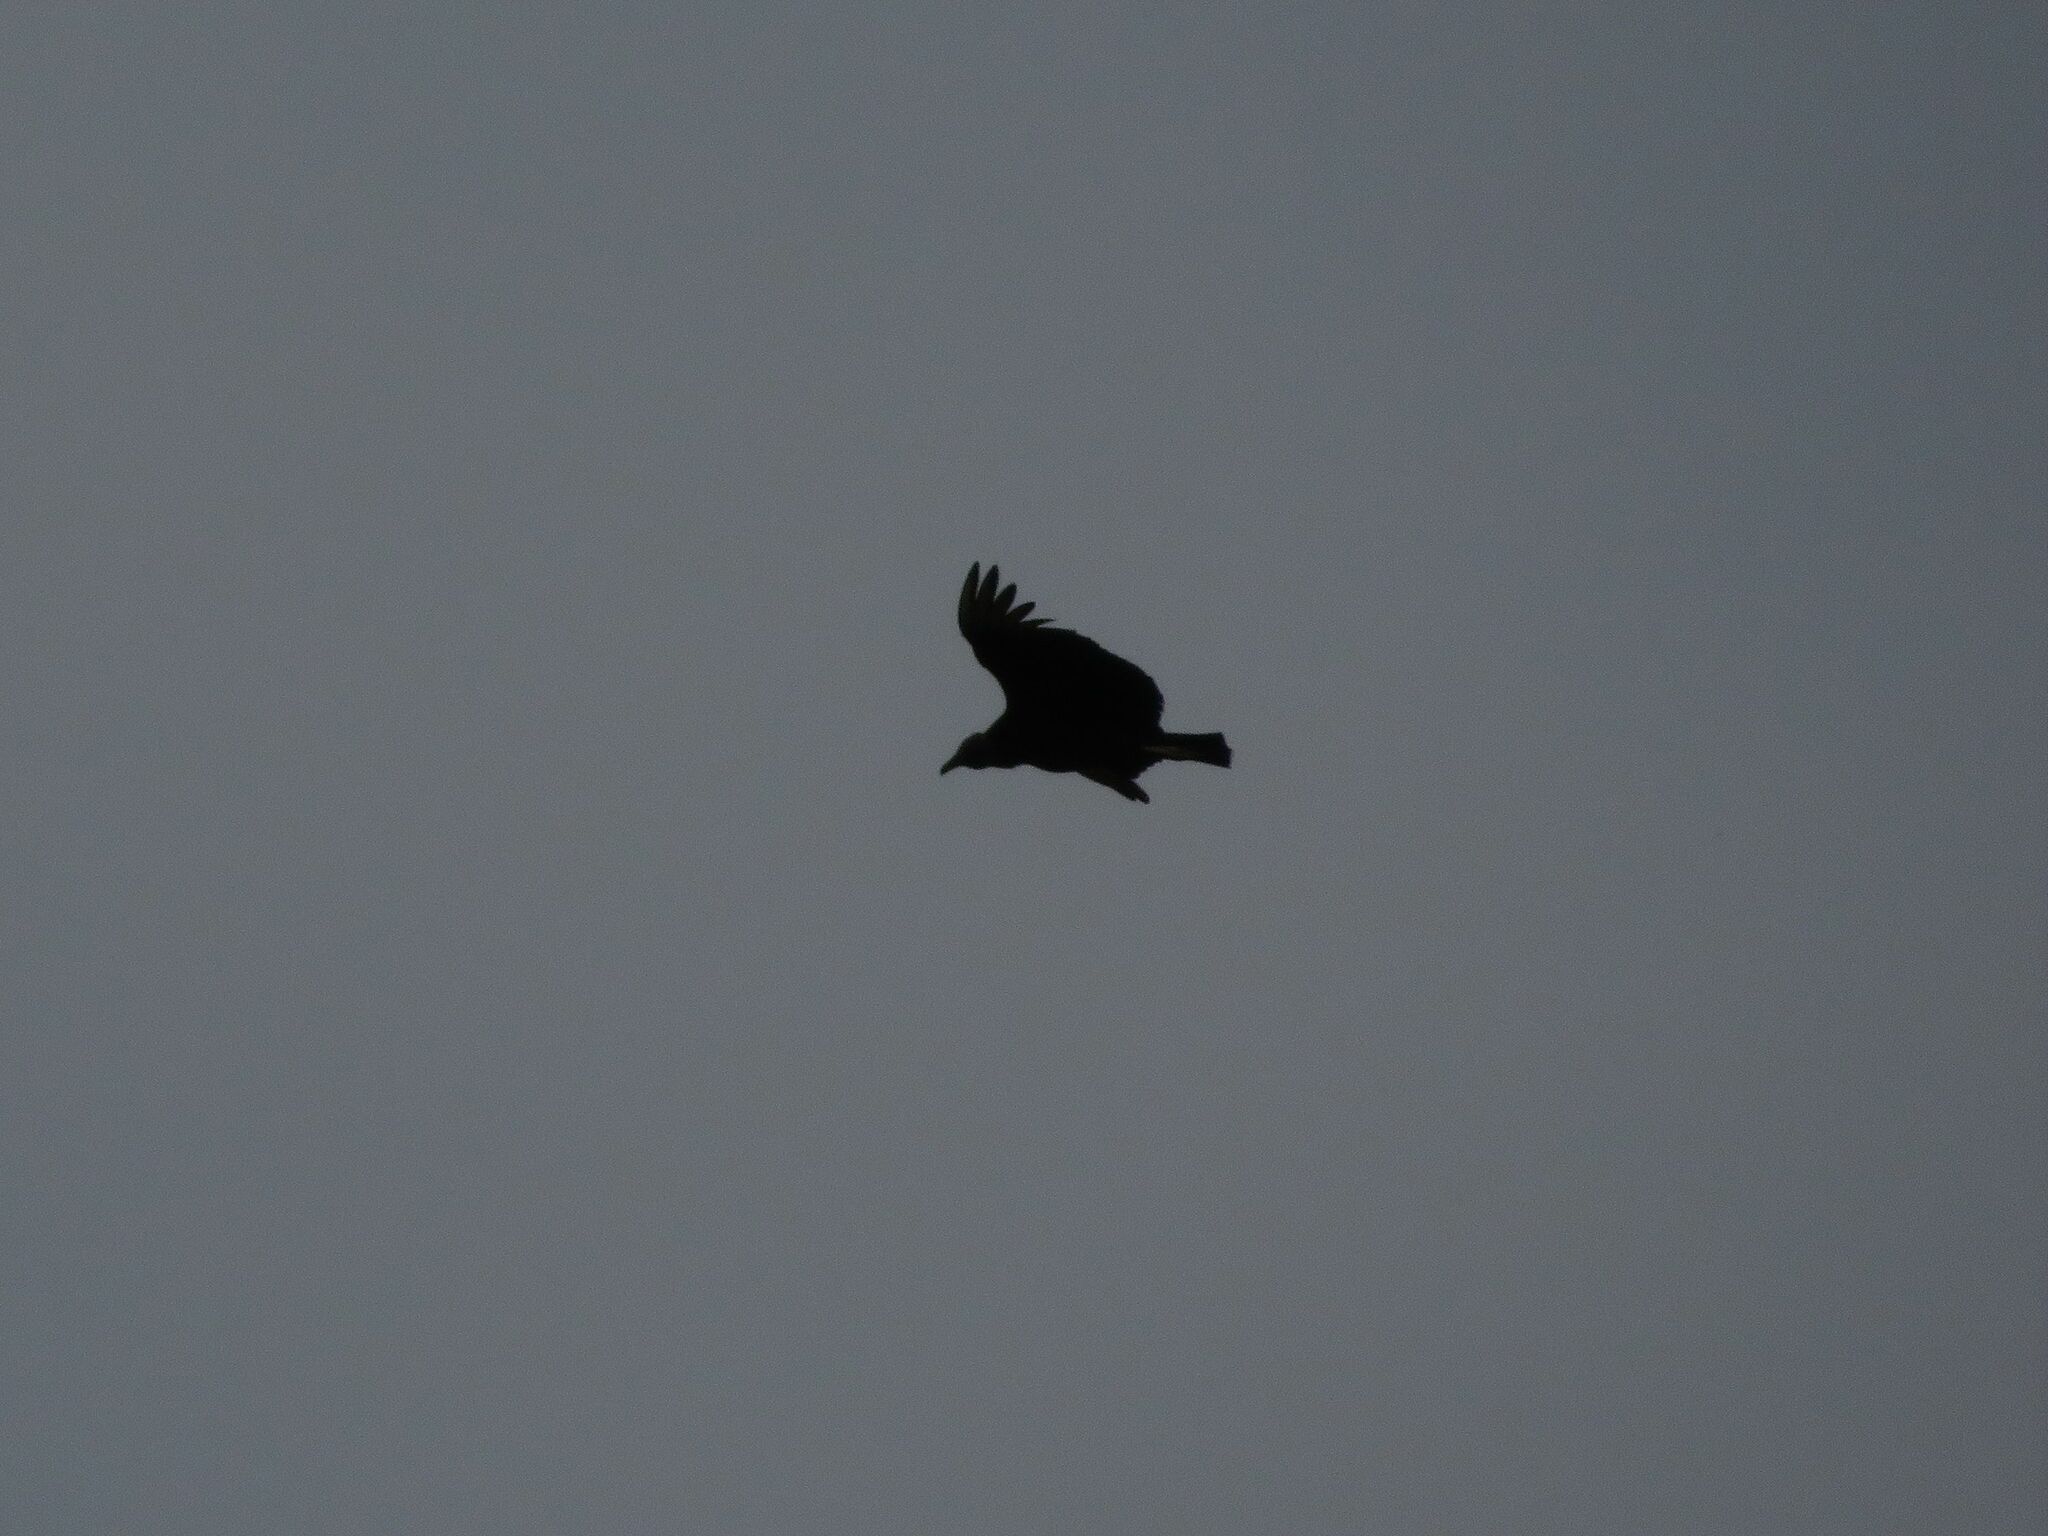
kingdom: Animalia
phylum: Chordata
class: Aves
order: Accipitriformes
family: Cathartidae
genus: Coragyps
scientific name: Coragyps atratus
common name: Black vulture
